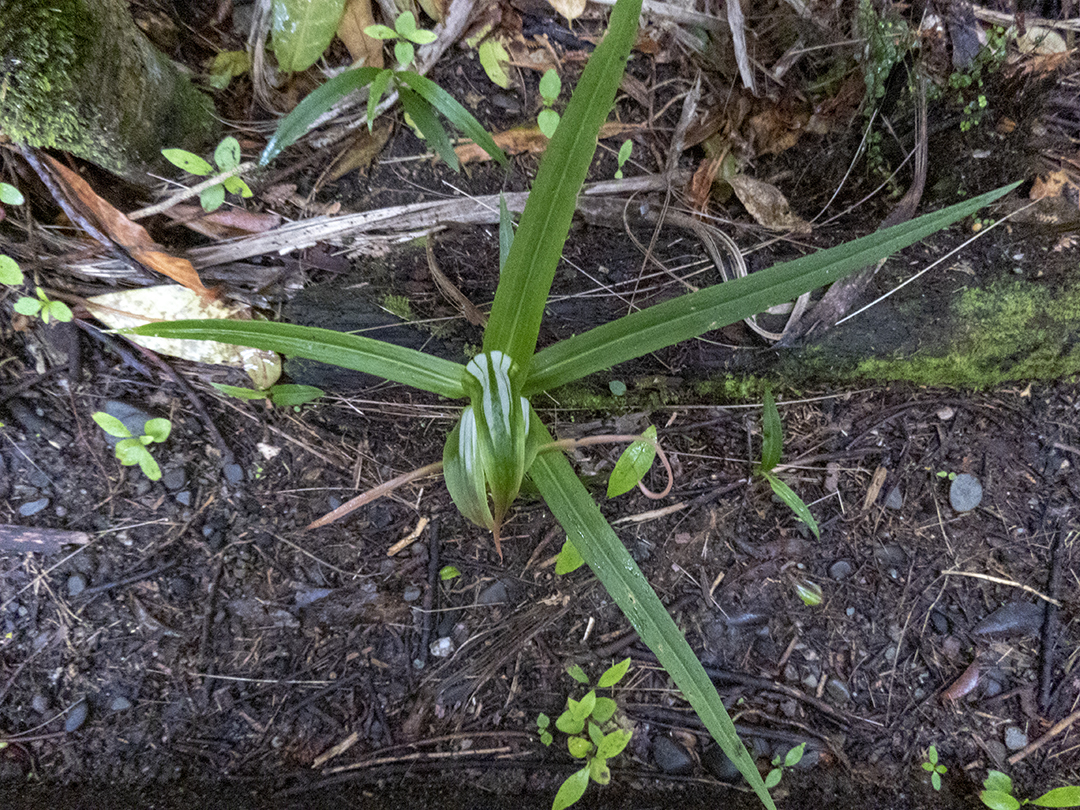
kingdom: Plantae
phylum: Tracheophyta
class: Liliopsida
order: Asparagales
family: Orchidaceae
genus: Pterostylis
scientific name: Pterostylis banksii
